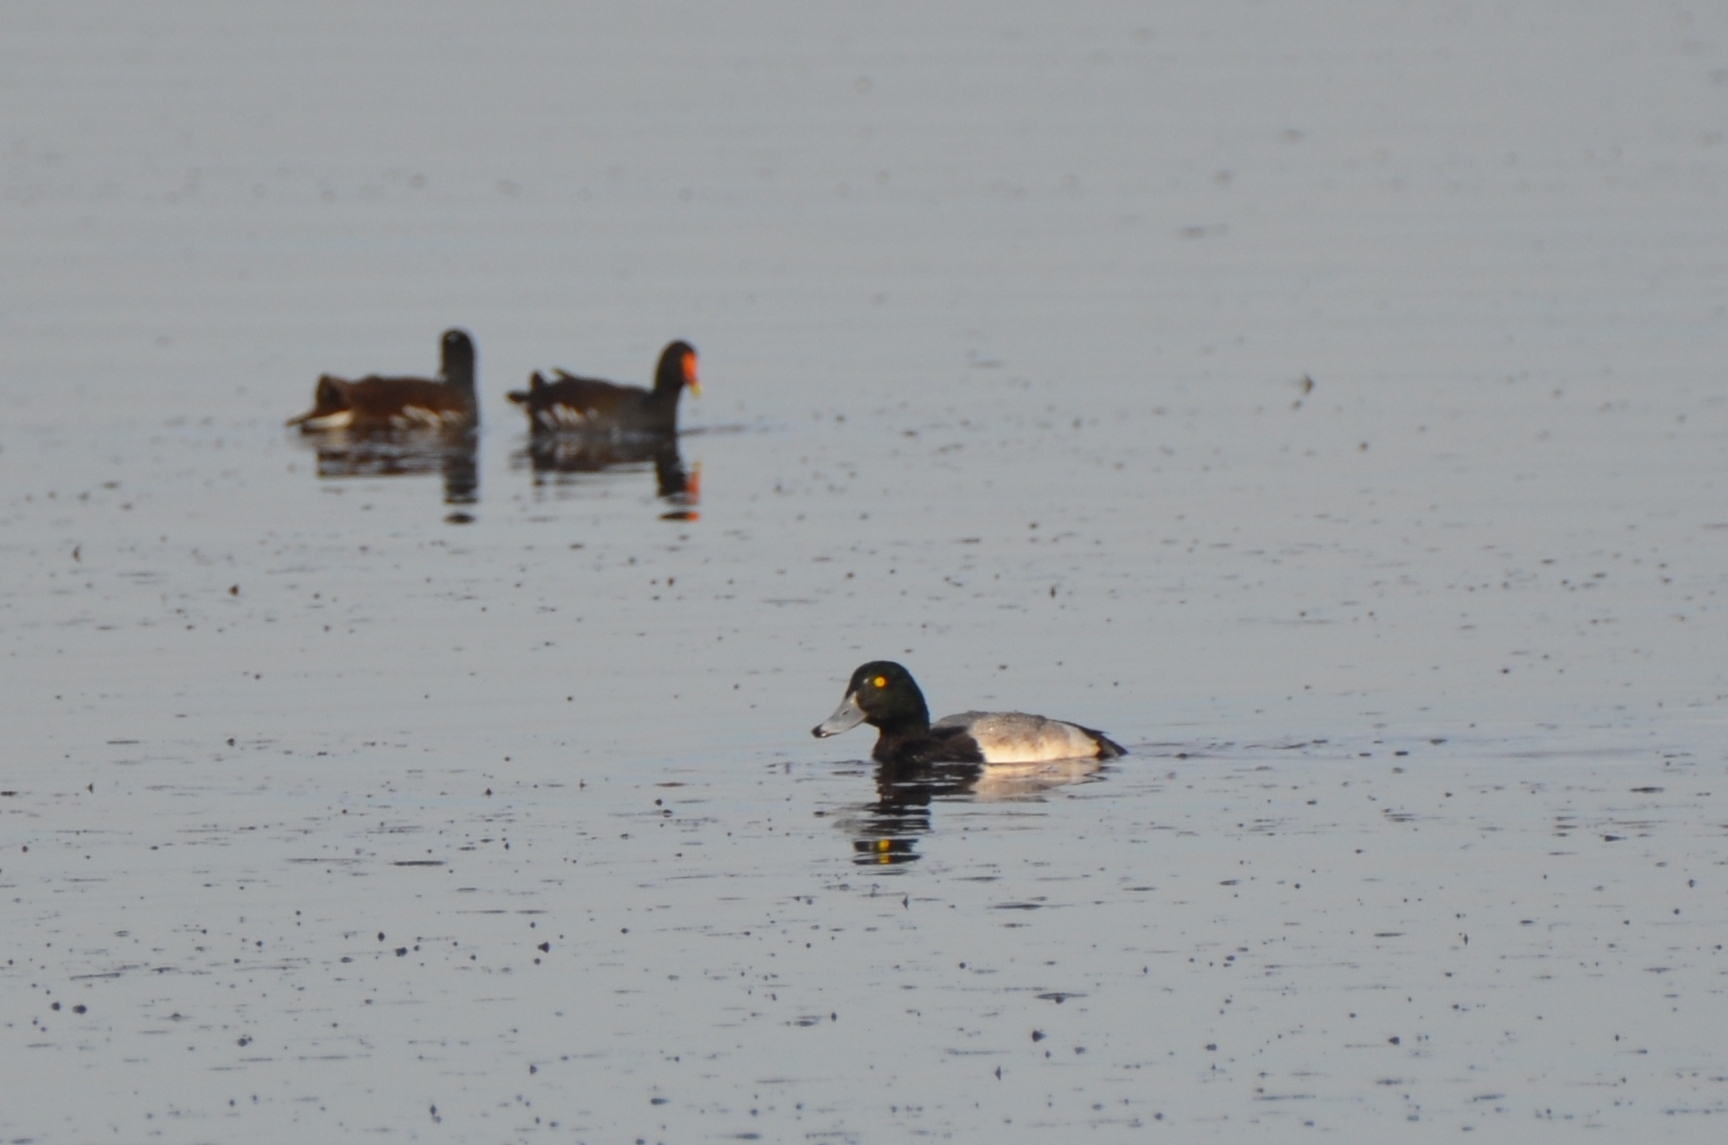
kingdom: Animalia
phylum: Chordata
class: Aves
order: Anseriformes
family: Anatidae
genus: Aythya
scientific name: Aythya marila
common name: Greater scaup
